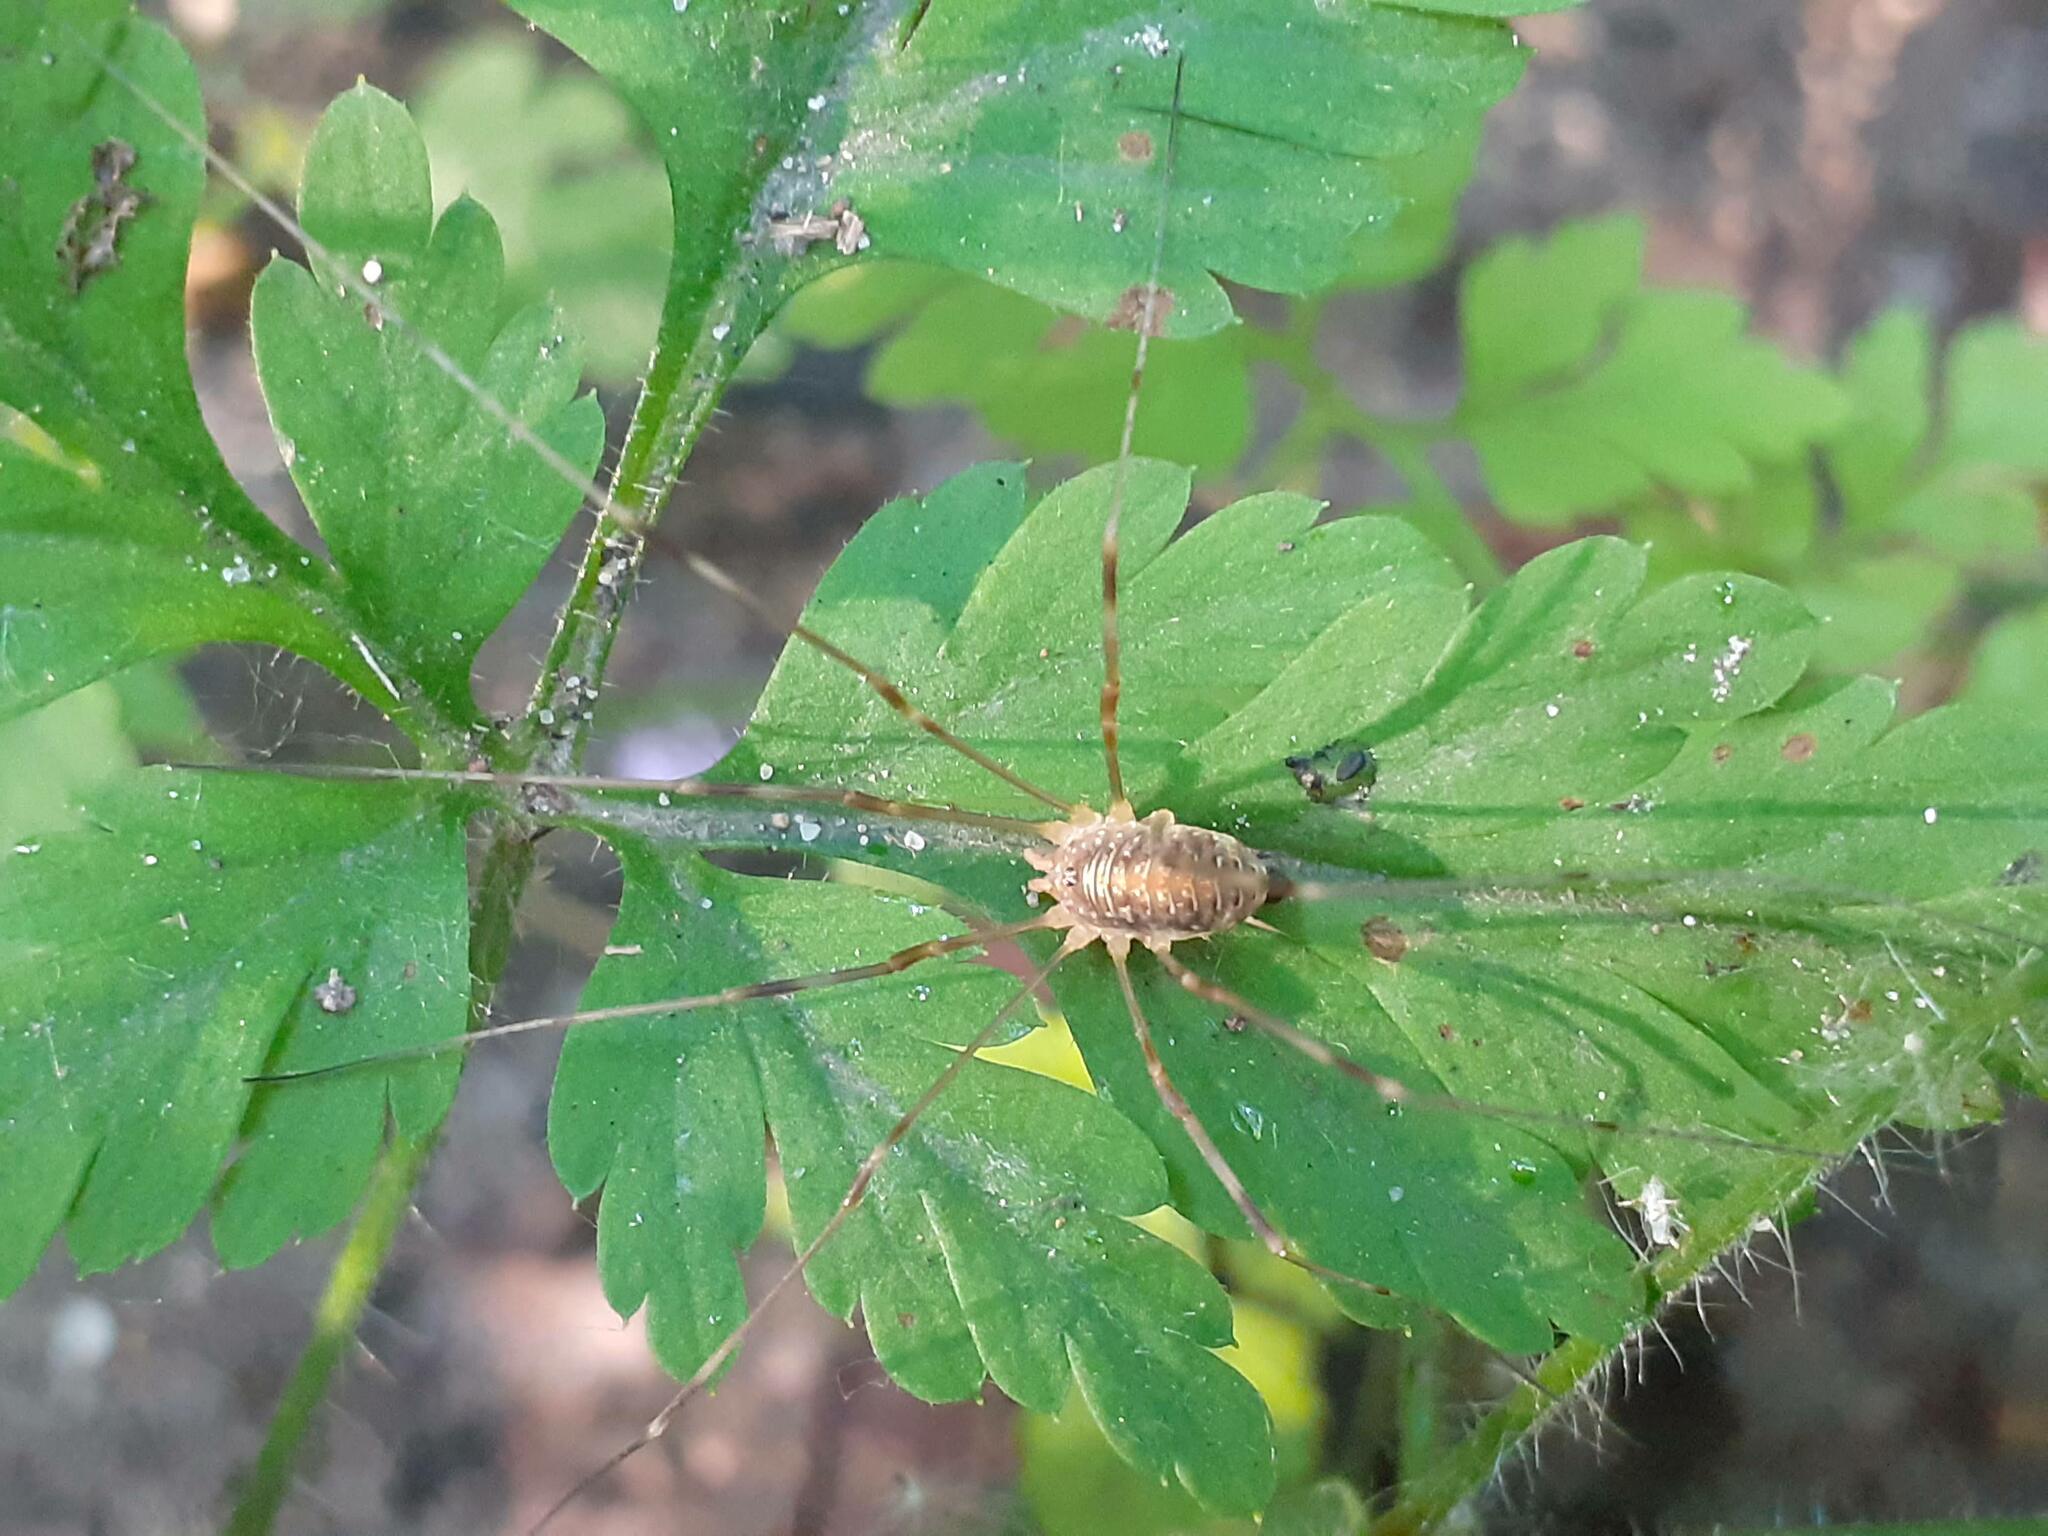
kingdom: Animalia
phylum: Arthropoda
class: Arachnida
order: Opiliones
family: Phalangiidae
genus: Opilio
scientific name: Opilio canestrinii
